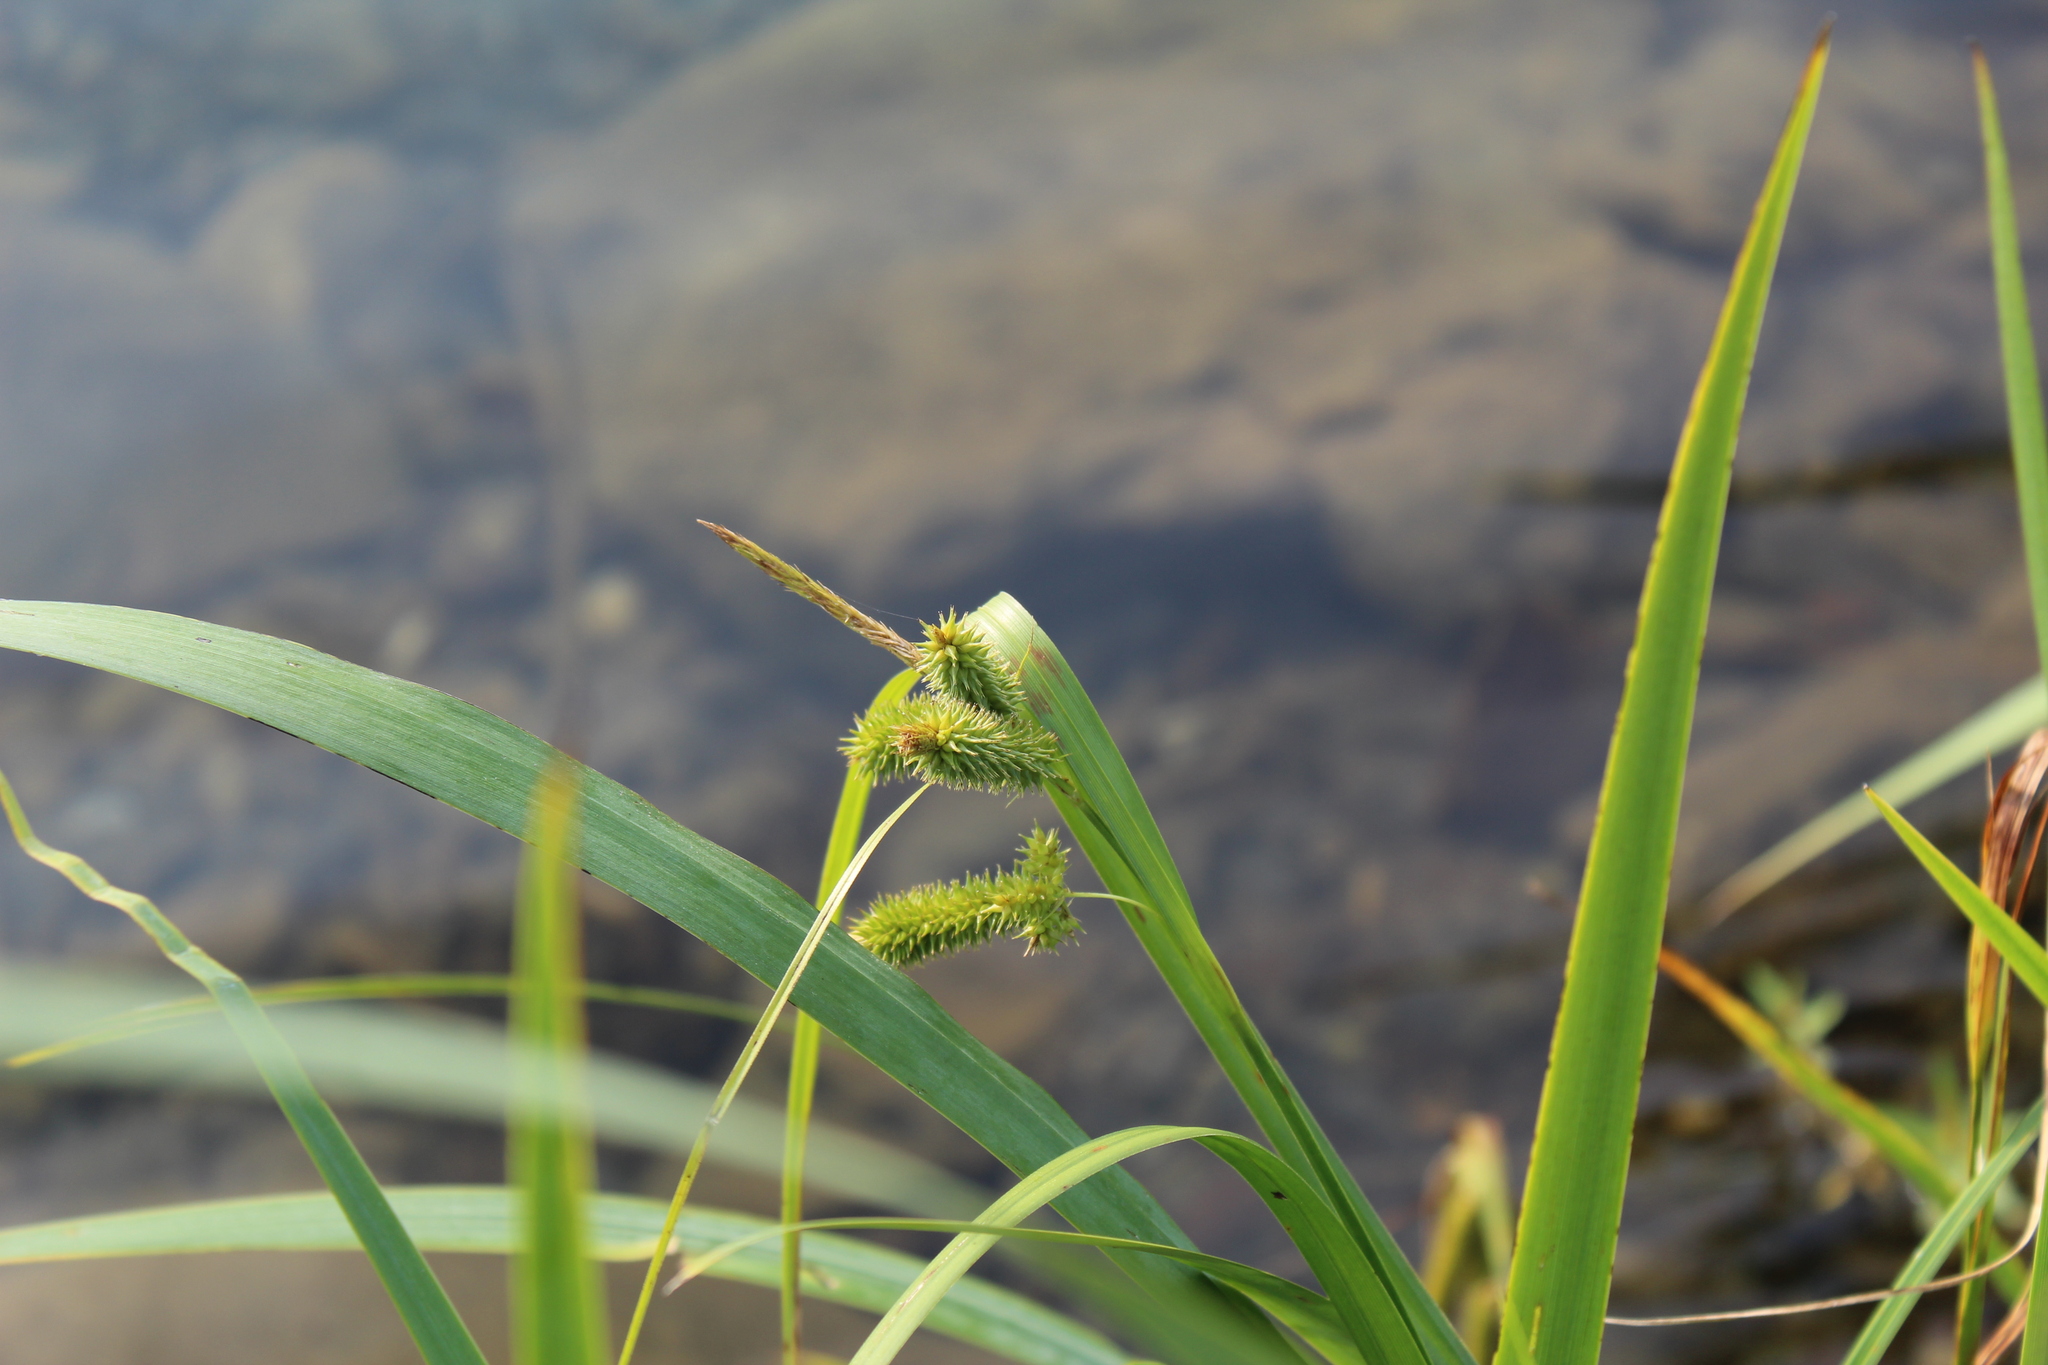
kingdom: Plantae
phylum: Tracheophyta
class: Liliopsida
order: Poales
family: Cyperaceae
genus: Carex
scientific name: Carex pseudocyperus
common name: Cyperus sedge
